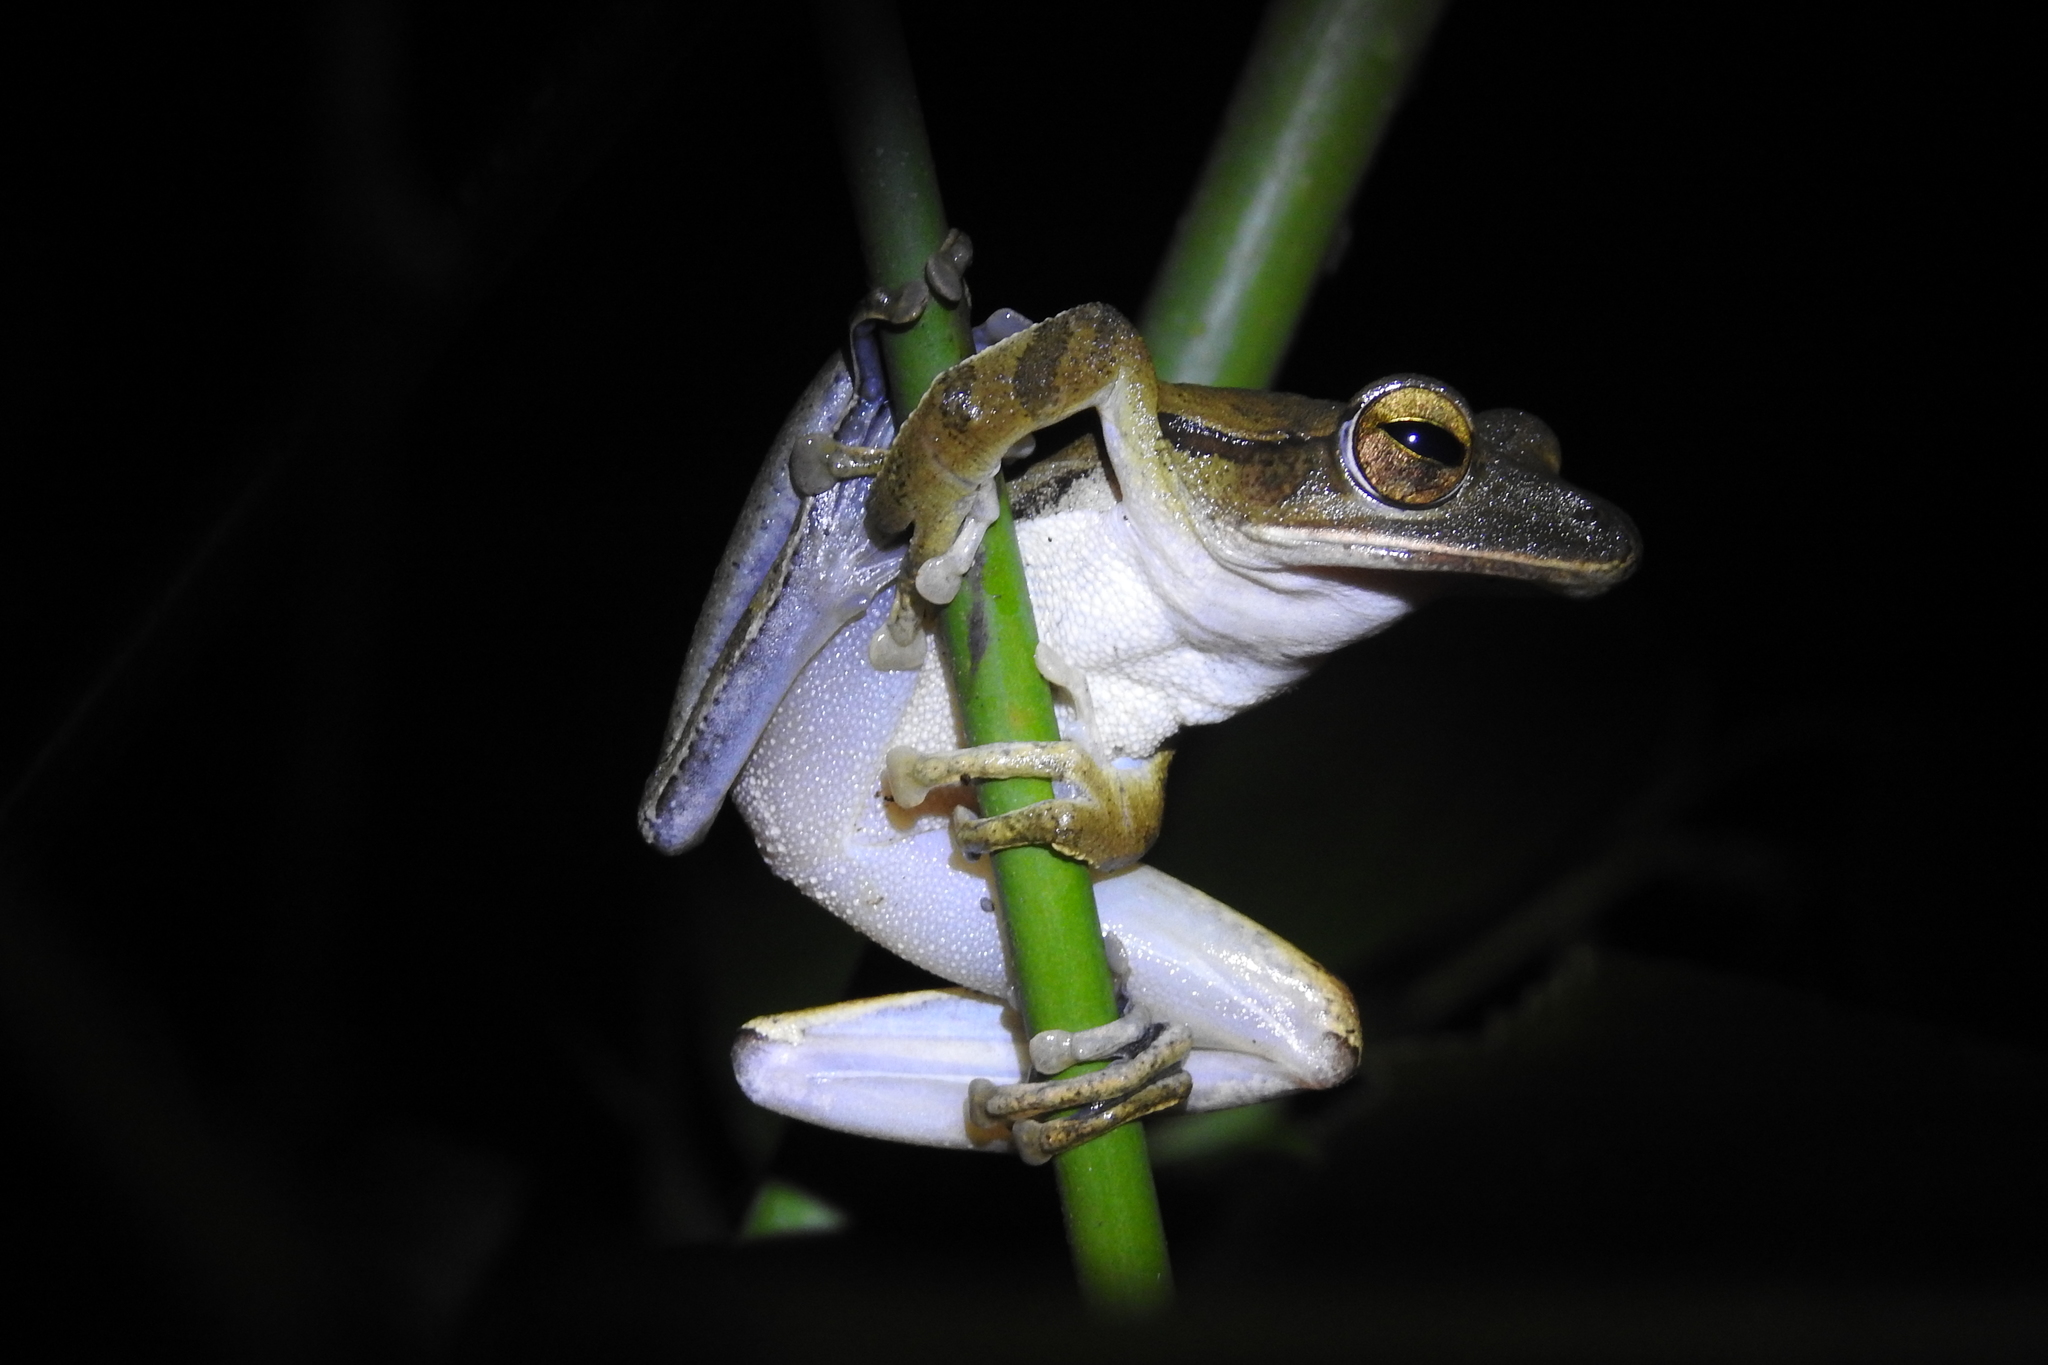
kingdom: Animalia
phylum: Chordata
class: Amphibia
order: Anura
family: Rhacophoridae
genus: Polypedates
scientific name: Polypedates iskandari
